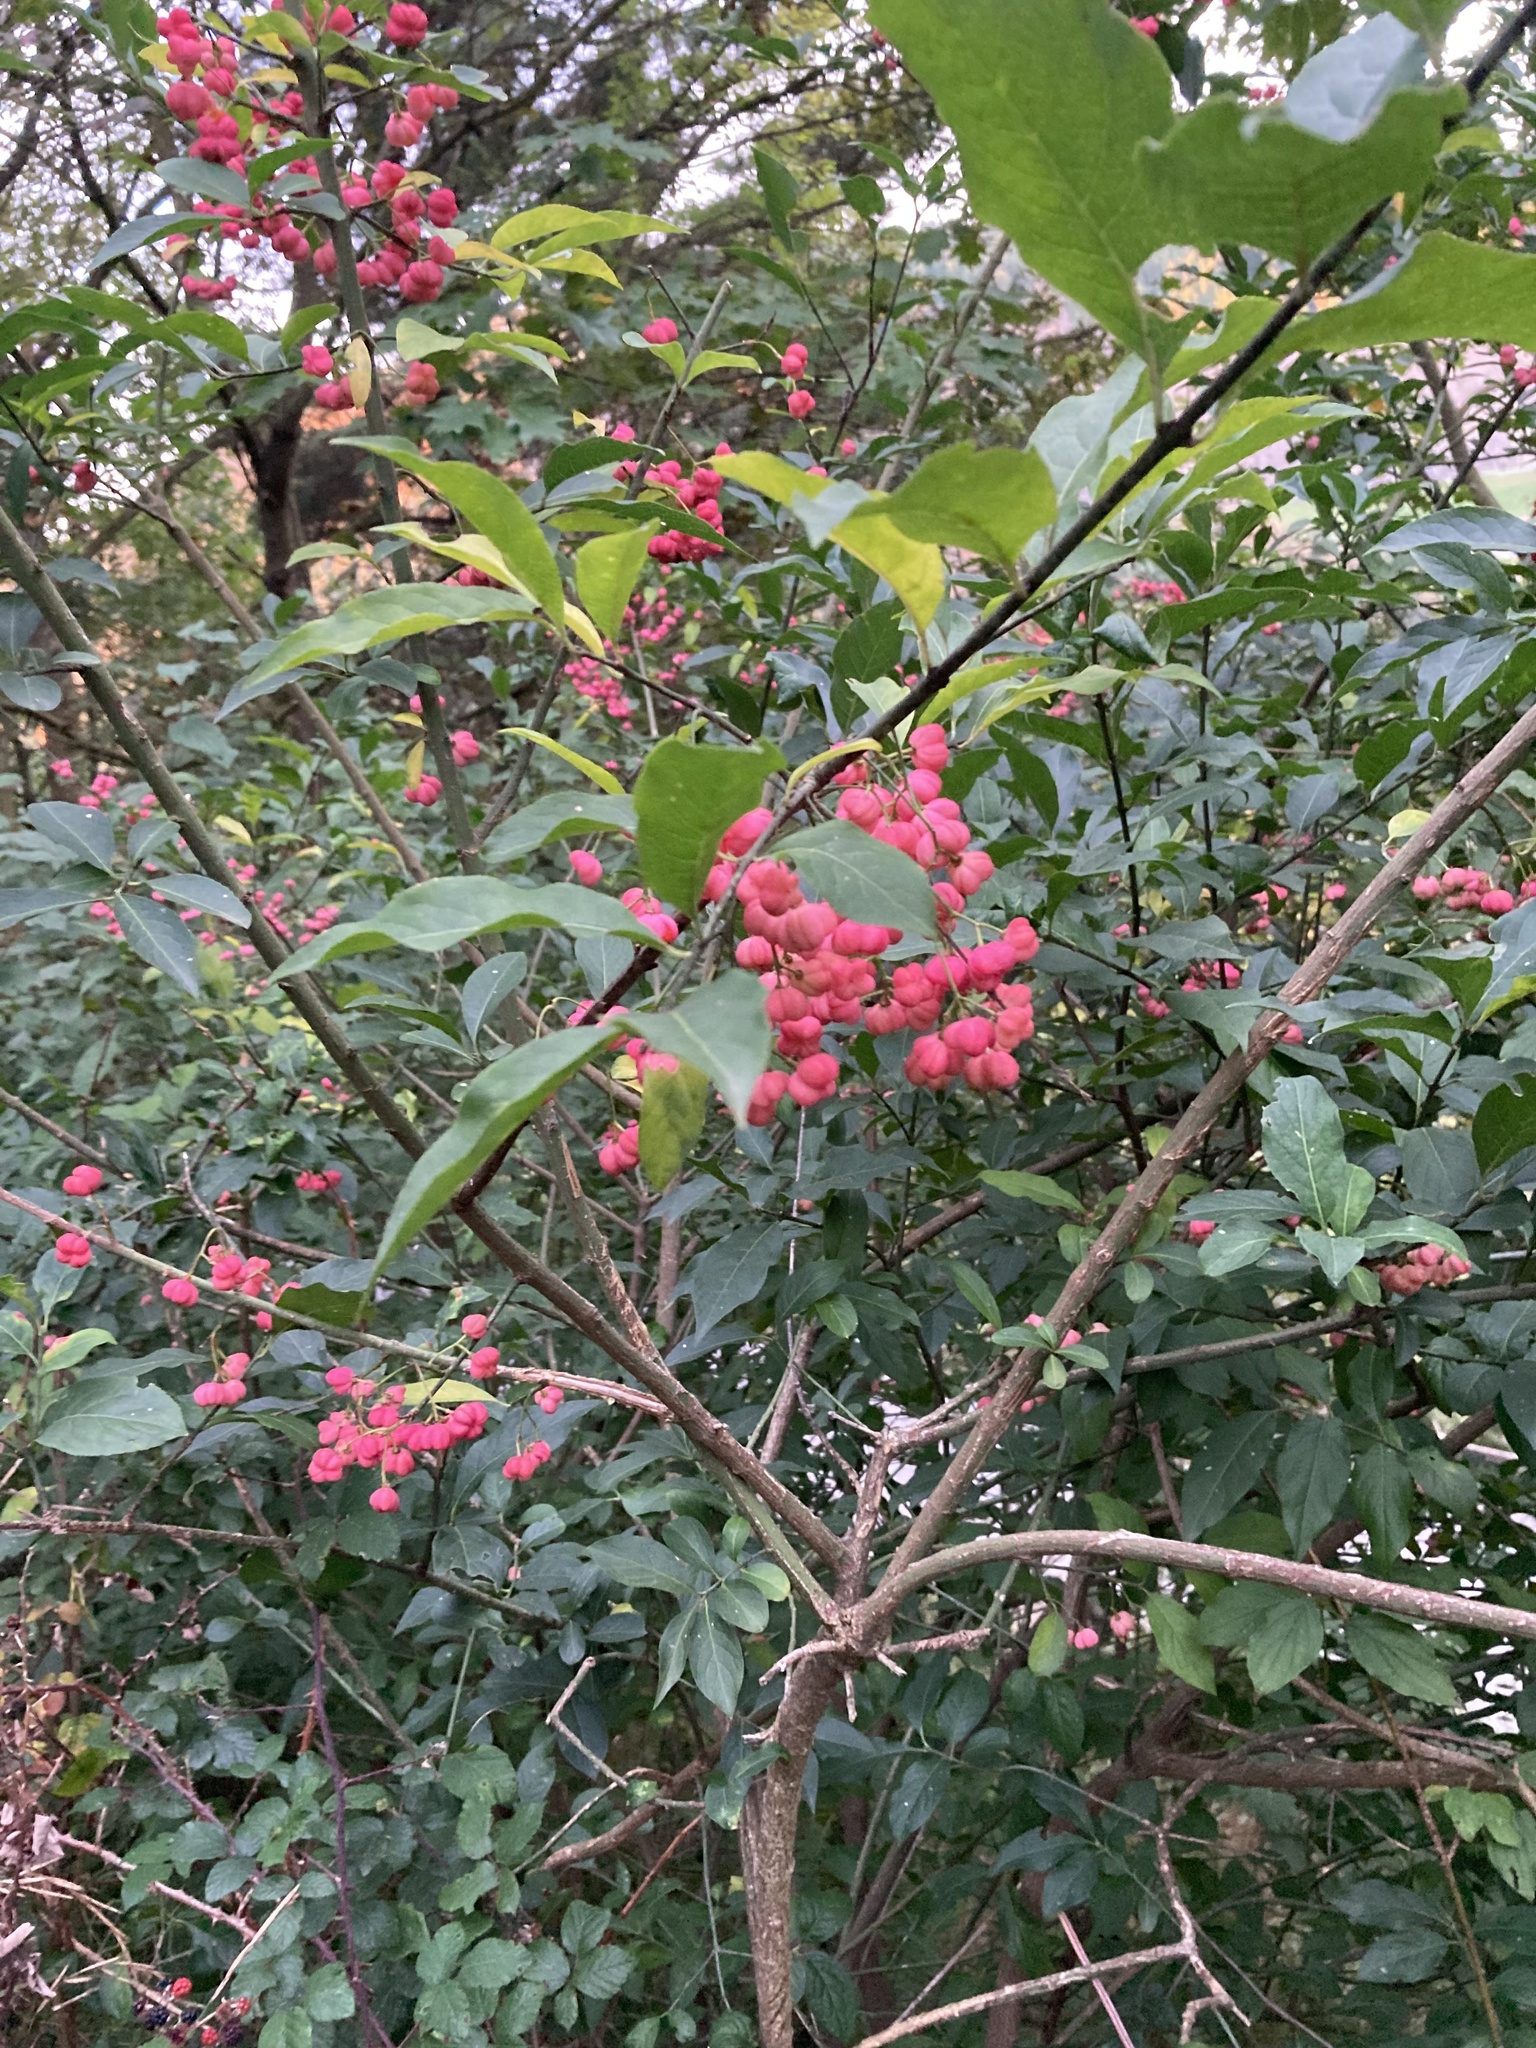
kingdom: Plantae
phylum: Tracheophyta
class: Magnoliopsida
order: Celastrales
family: Celastraceae
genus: Euonymus
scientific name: Euonymus europaeus
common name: Spindle
